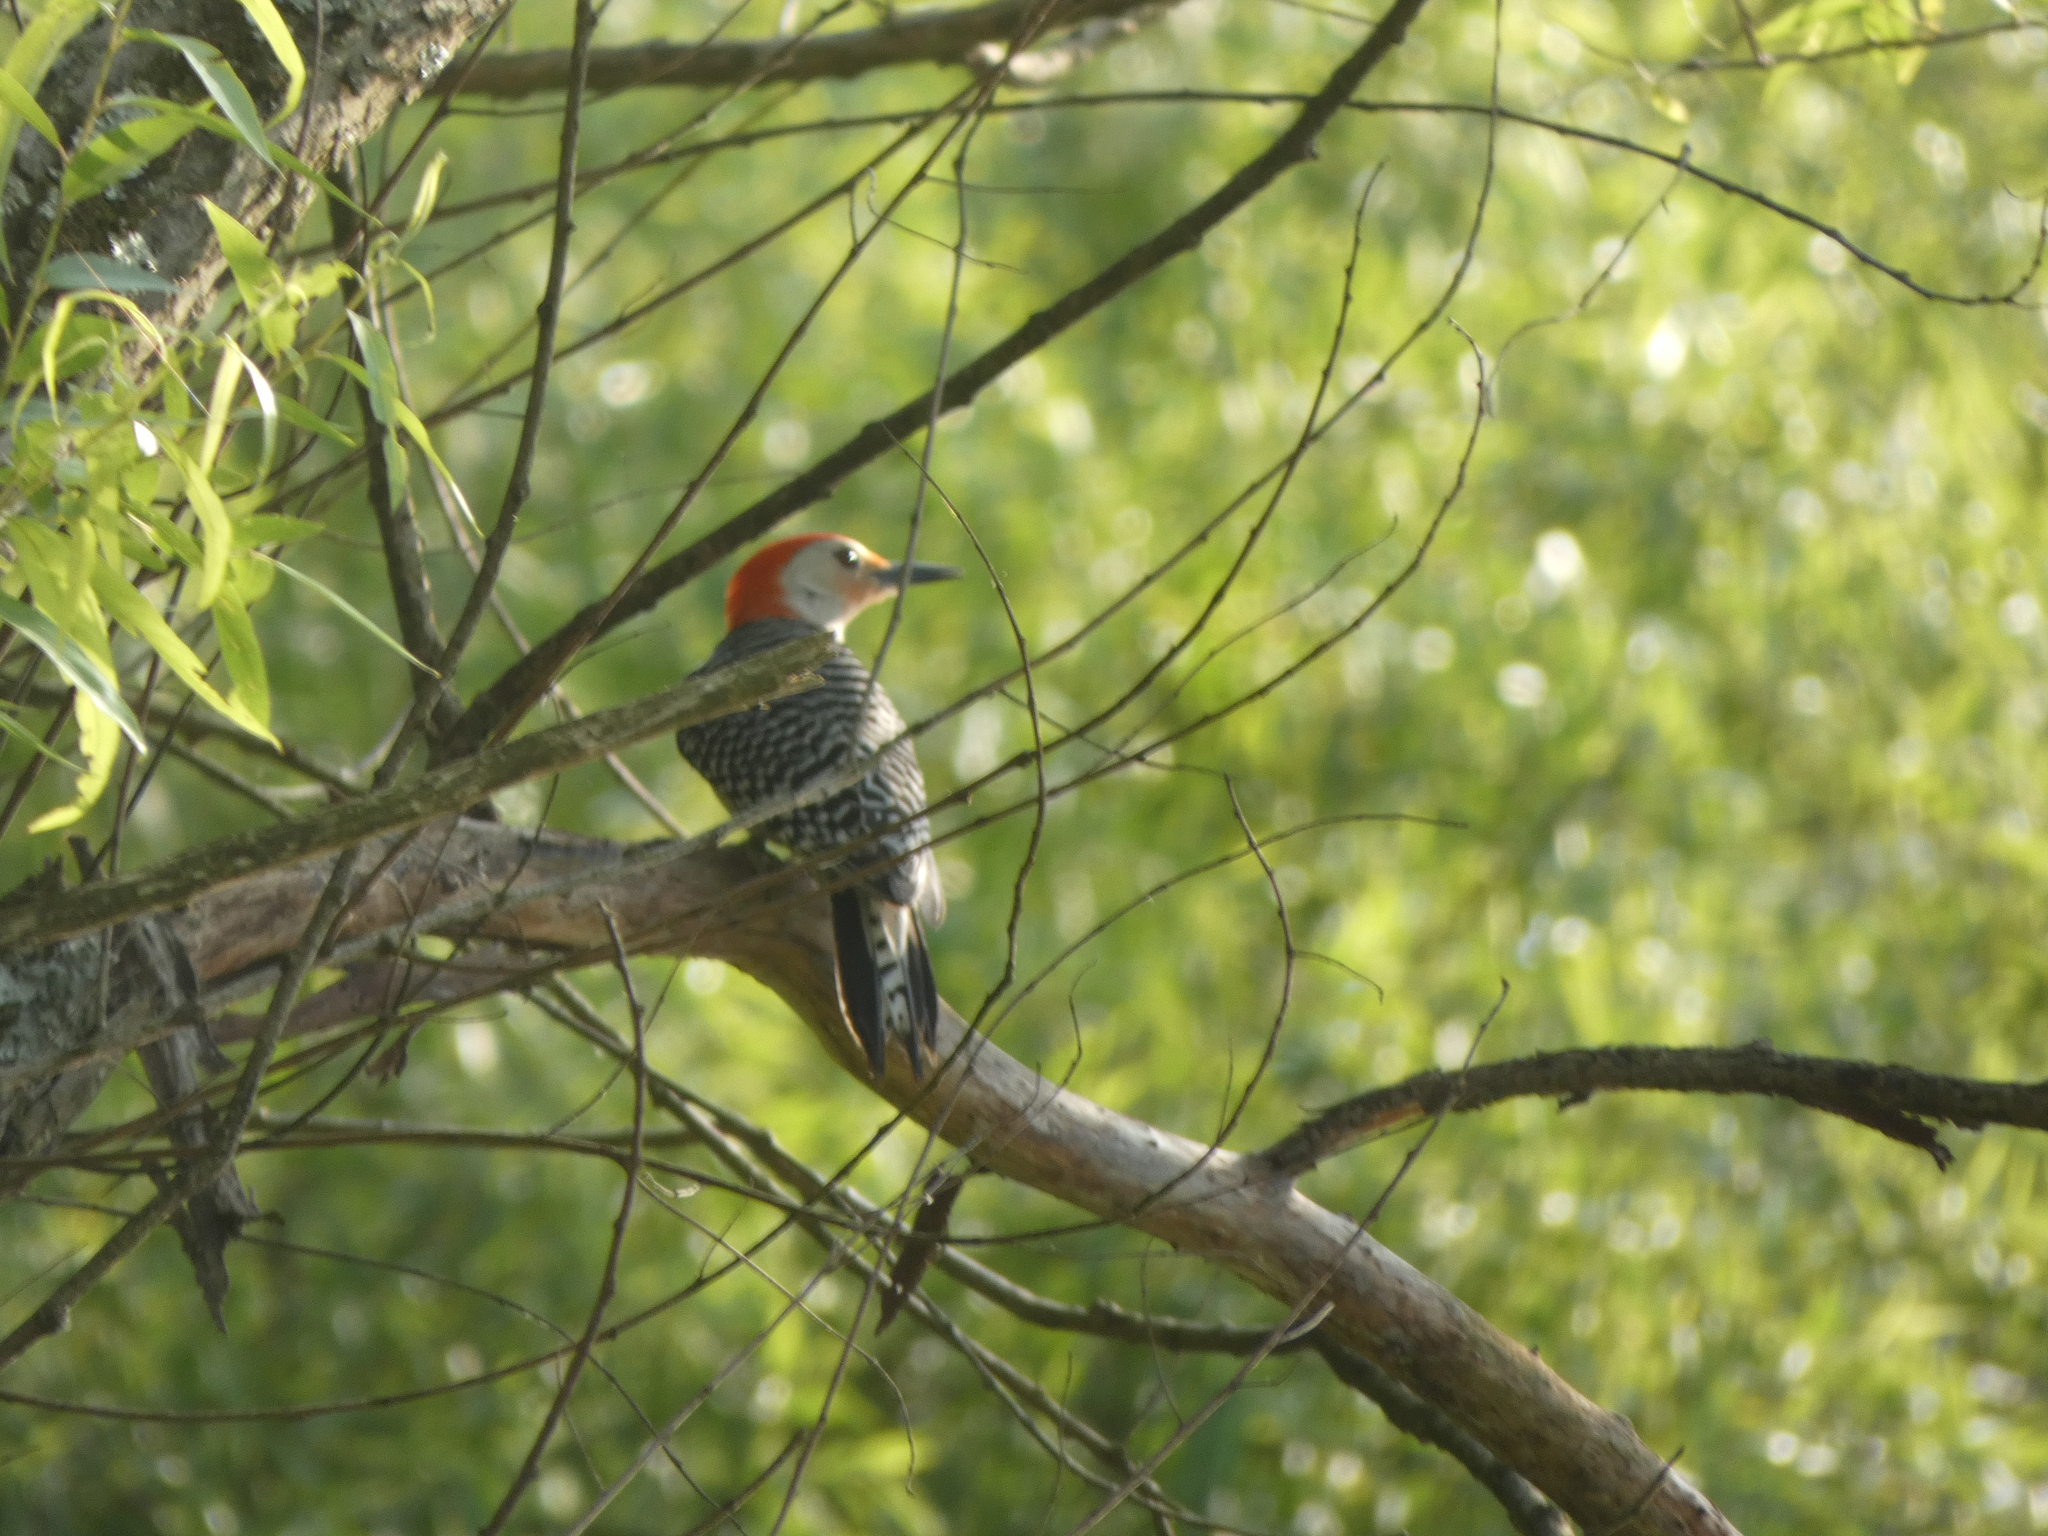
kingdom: Animalia
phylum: Chordata
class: Aves
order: Piciformes
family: Picidae
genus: Melanerpes
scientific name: Melanerpes carolinus
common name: Red-bellied woodpecker
